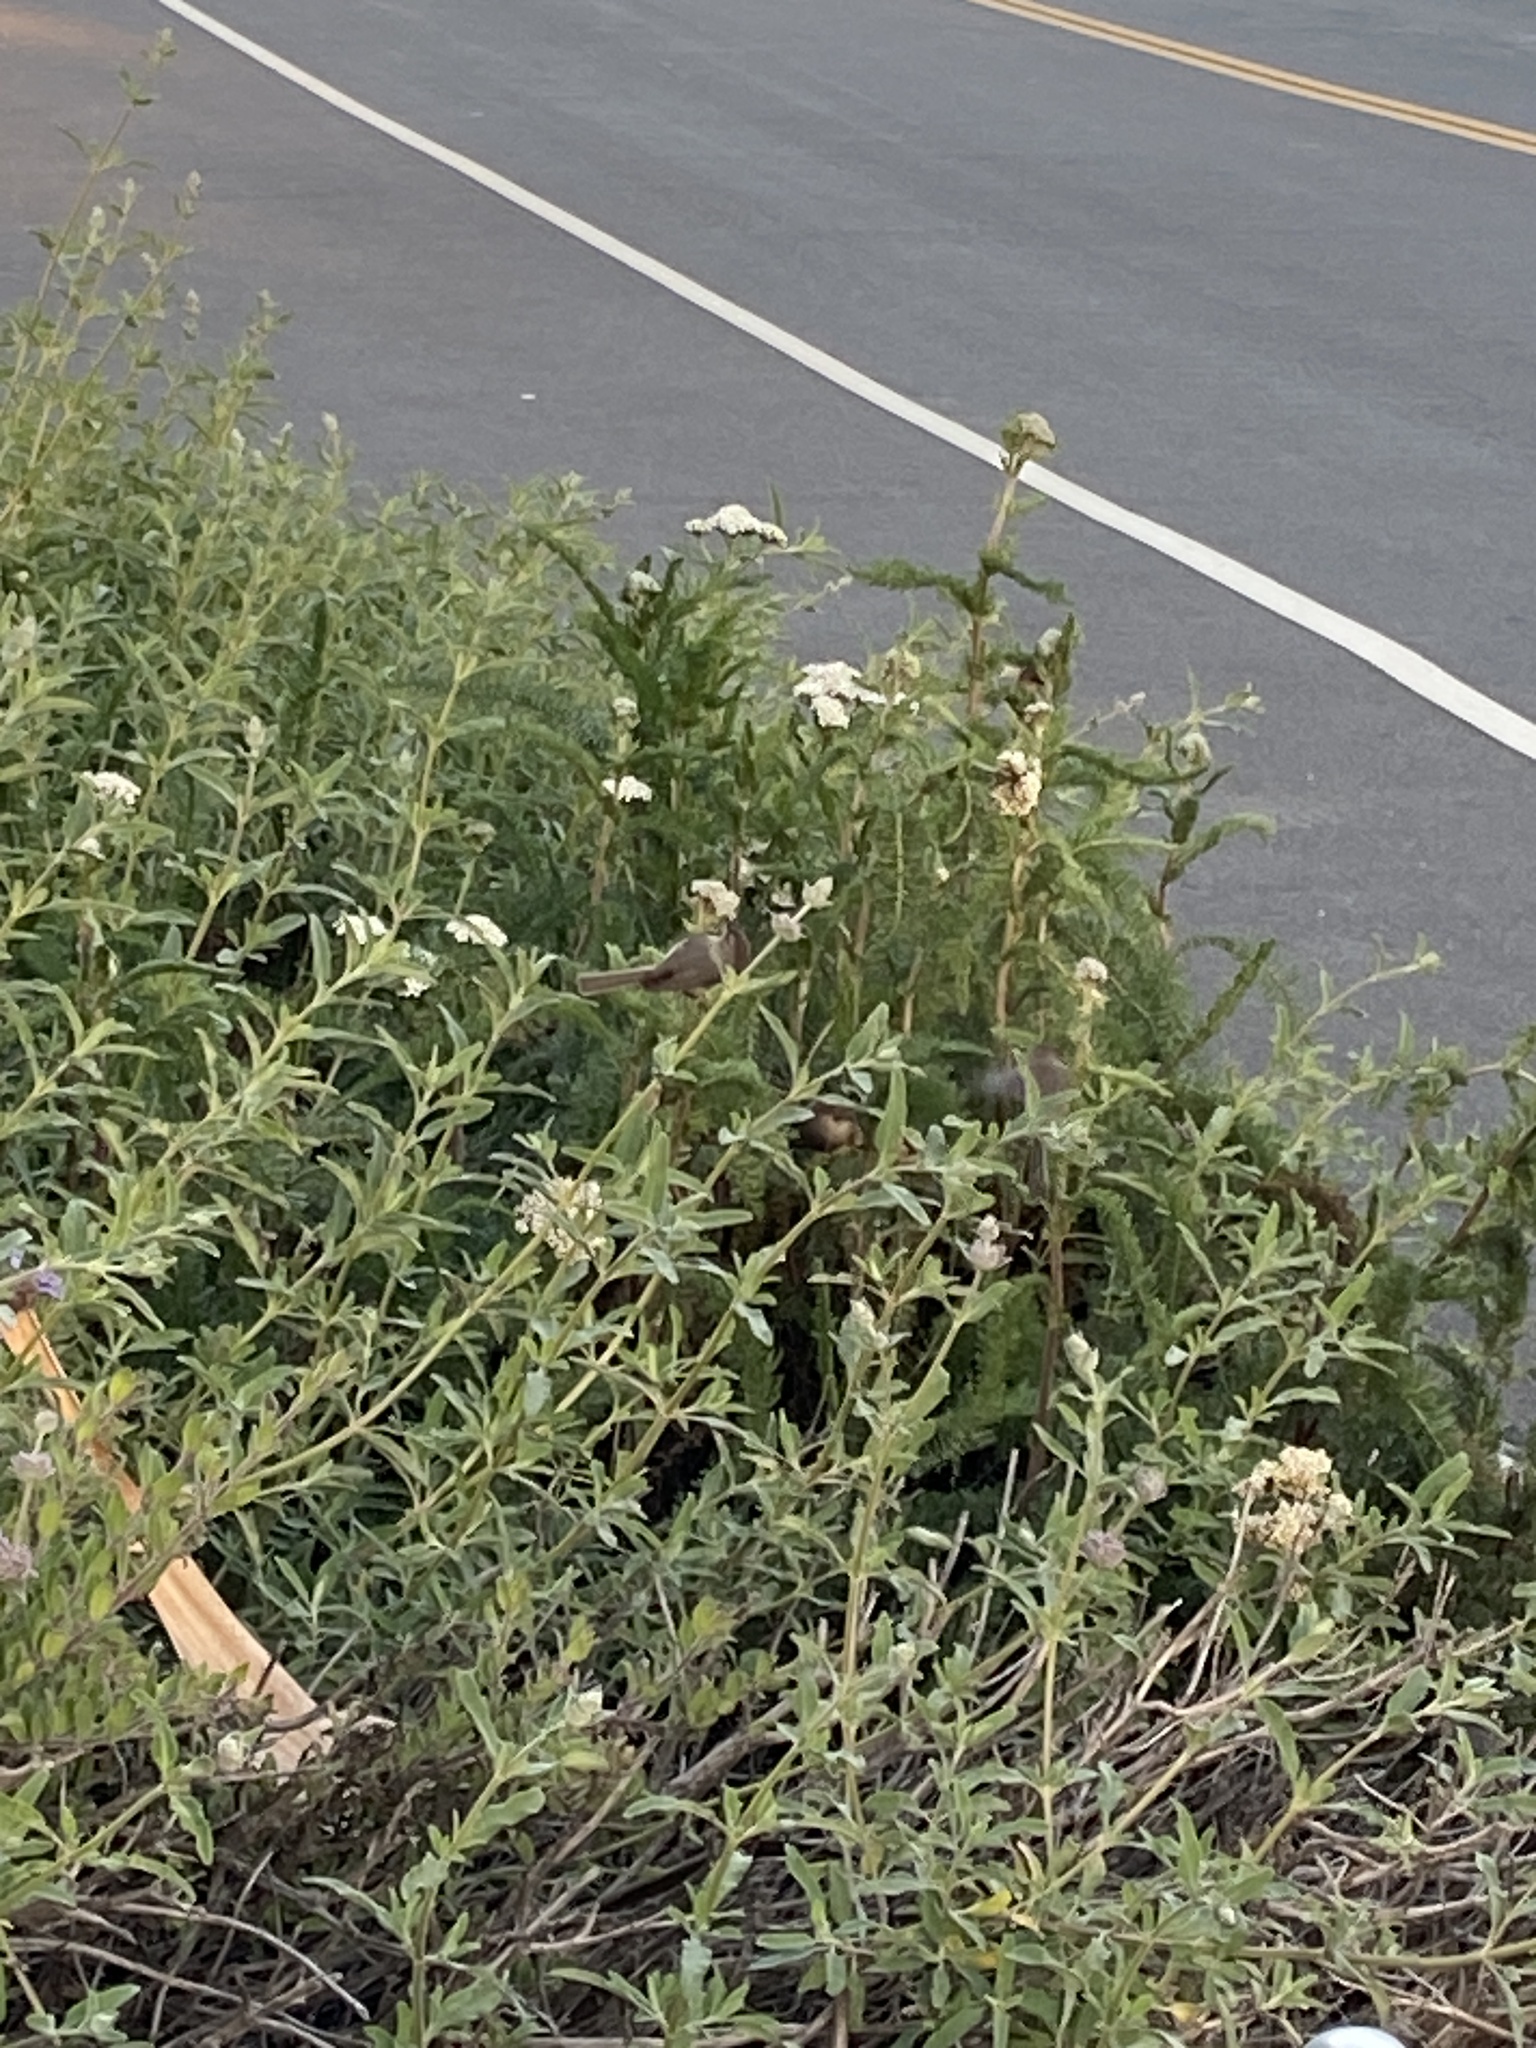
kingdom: Animalia
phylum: Chordata
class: Aves
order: Passeriformes
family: Aegithalidae
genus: Psaltriparus
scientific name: Psaltriparus minimus
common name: American bushtit
